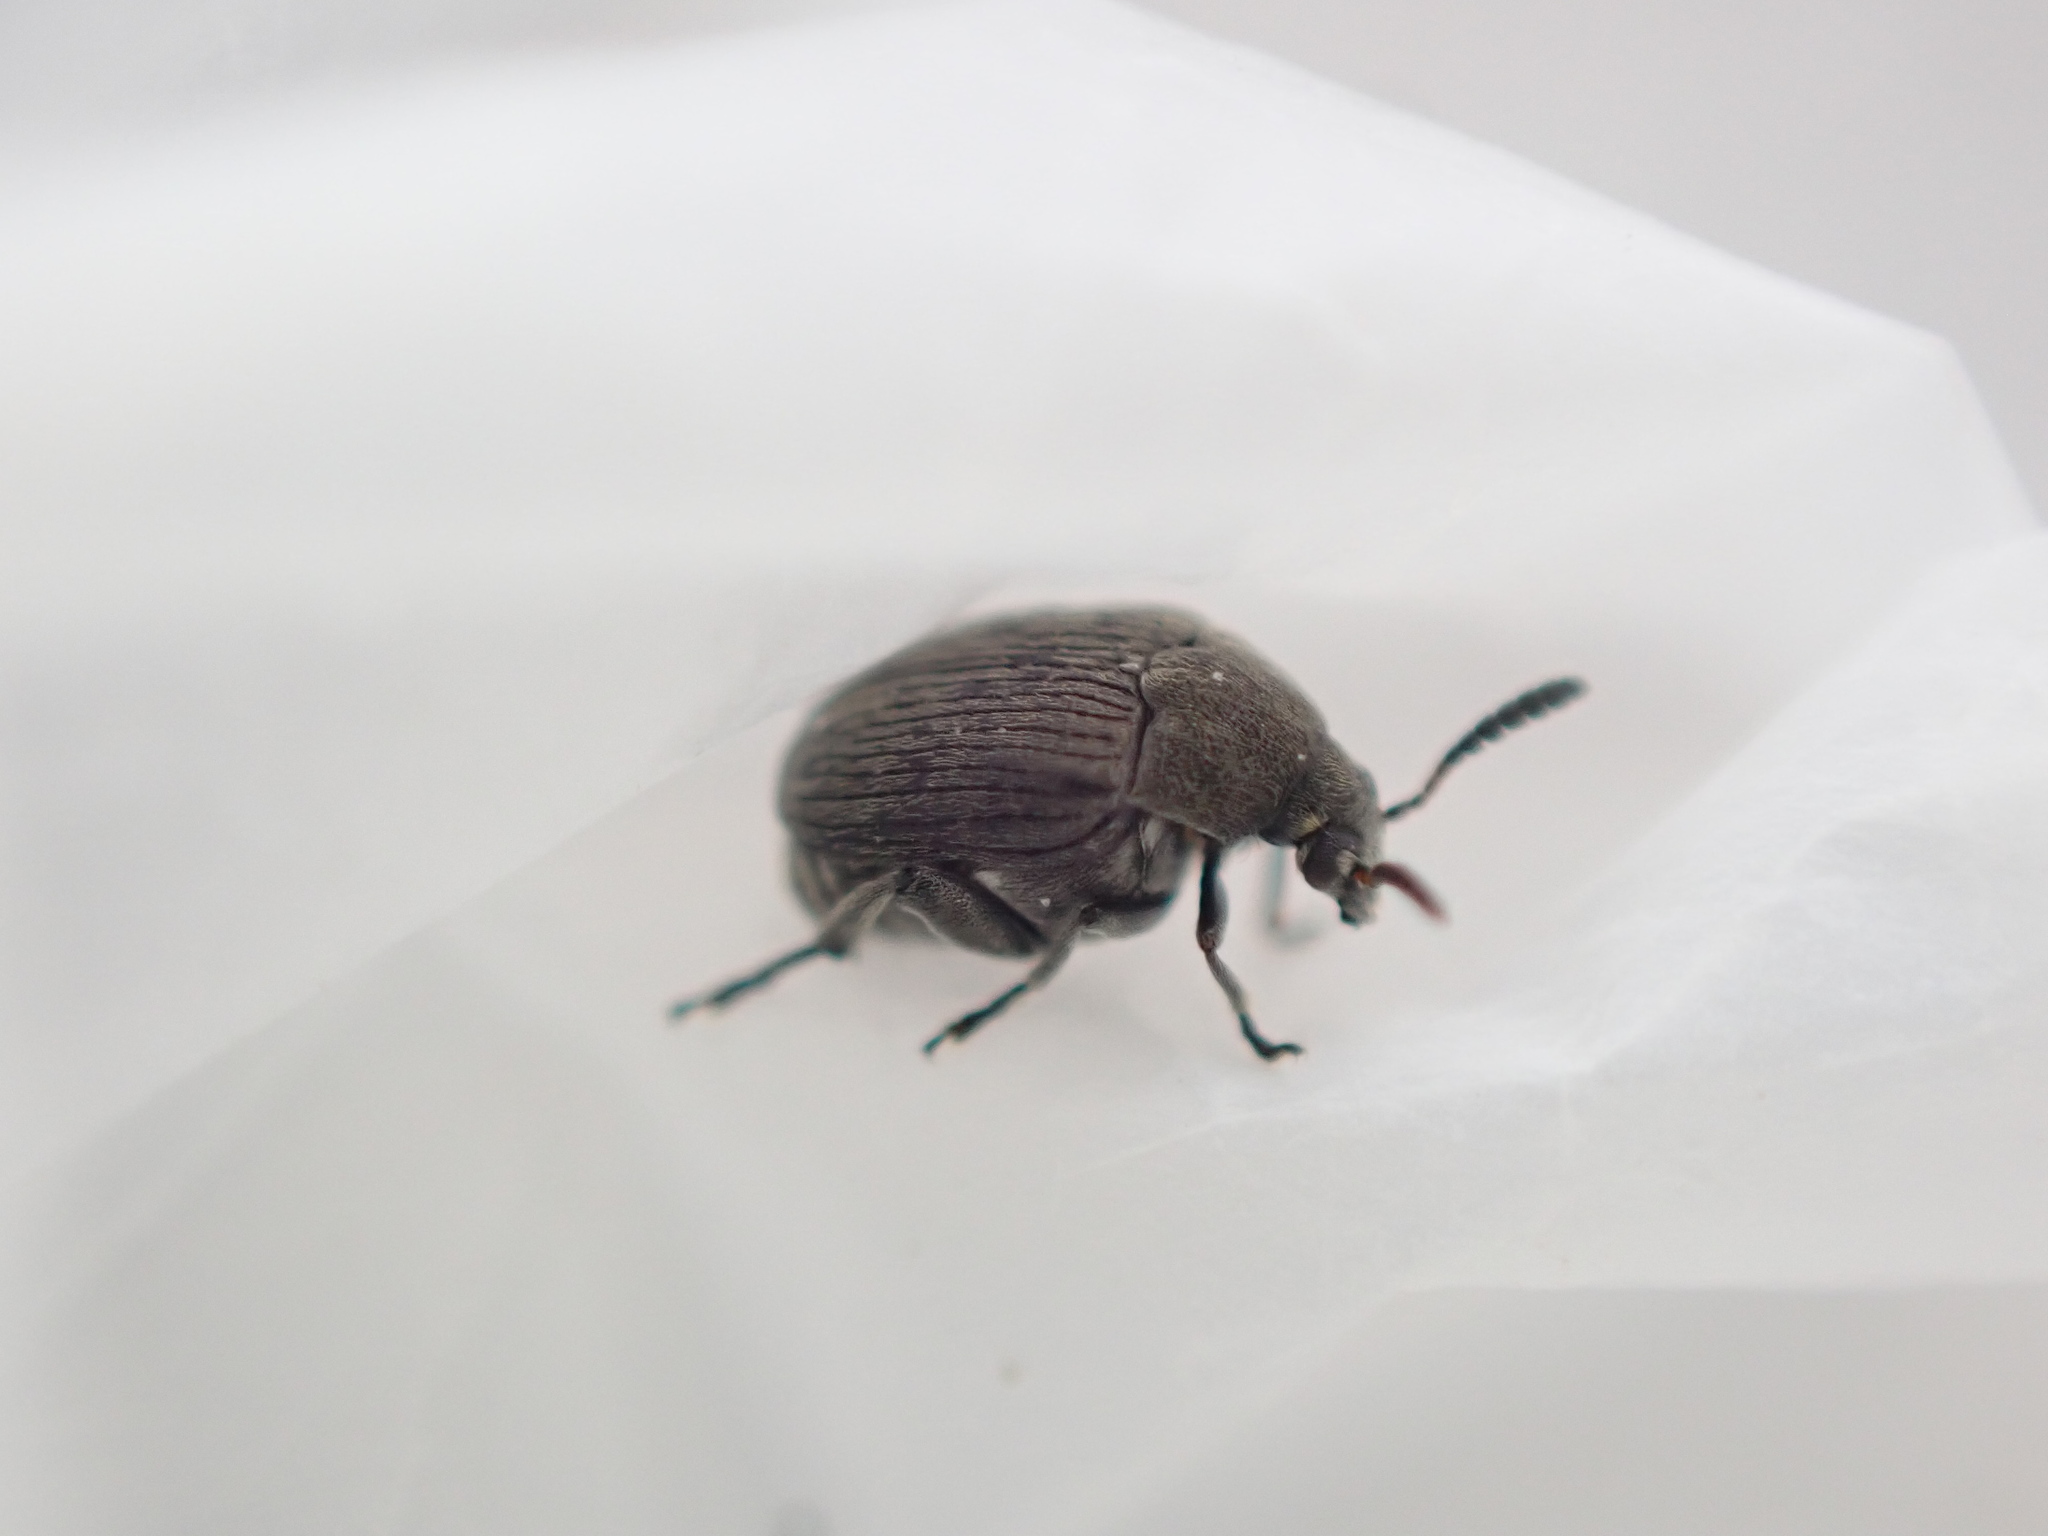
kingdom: Animalia
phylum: Arthropoda
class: Insecta
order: Coleoptera
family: Chrysomelidae
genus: Bruchidius
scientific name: Bruchidius villosus
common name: Scotch broom bruchid
